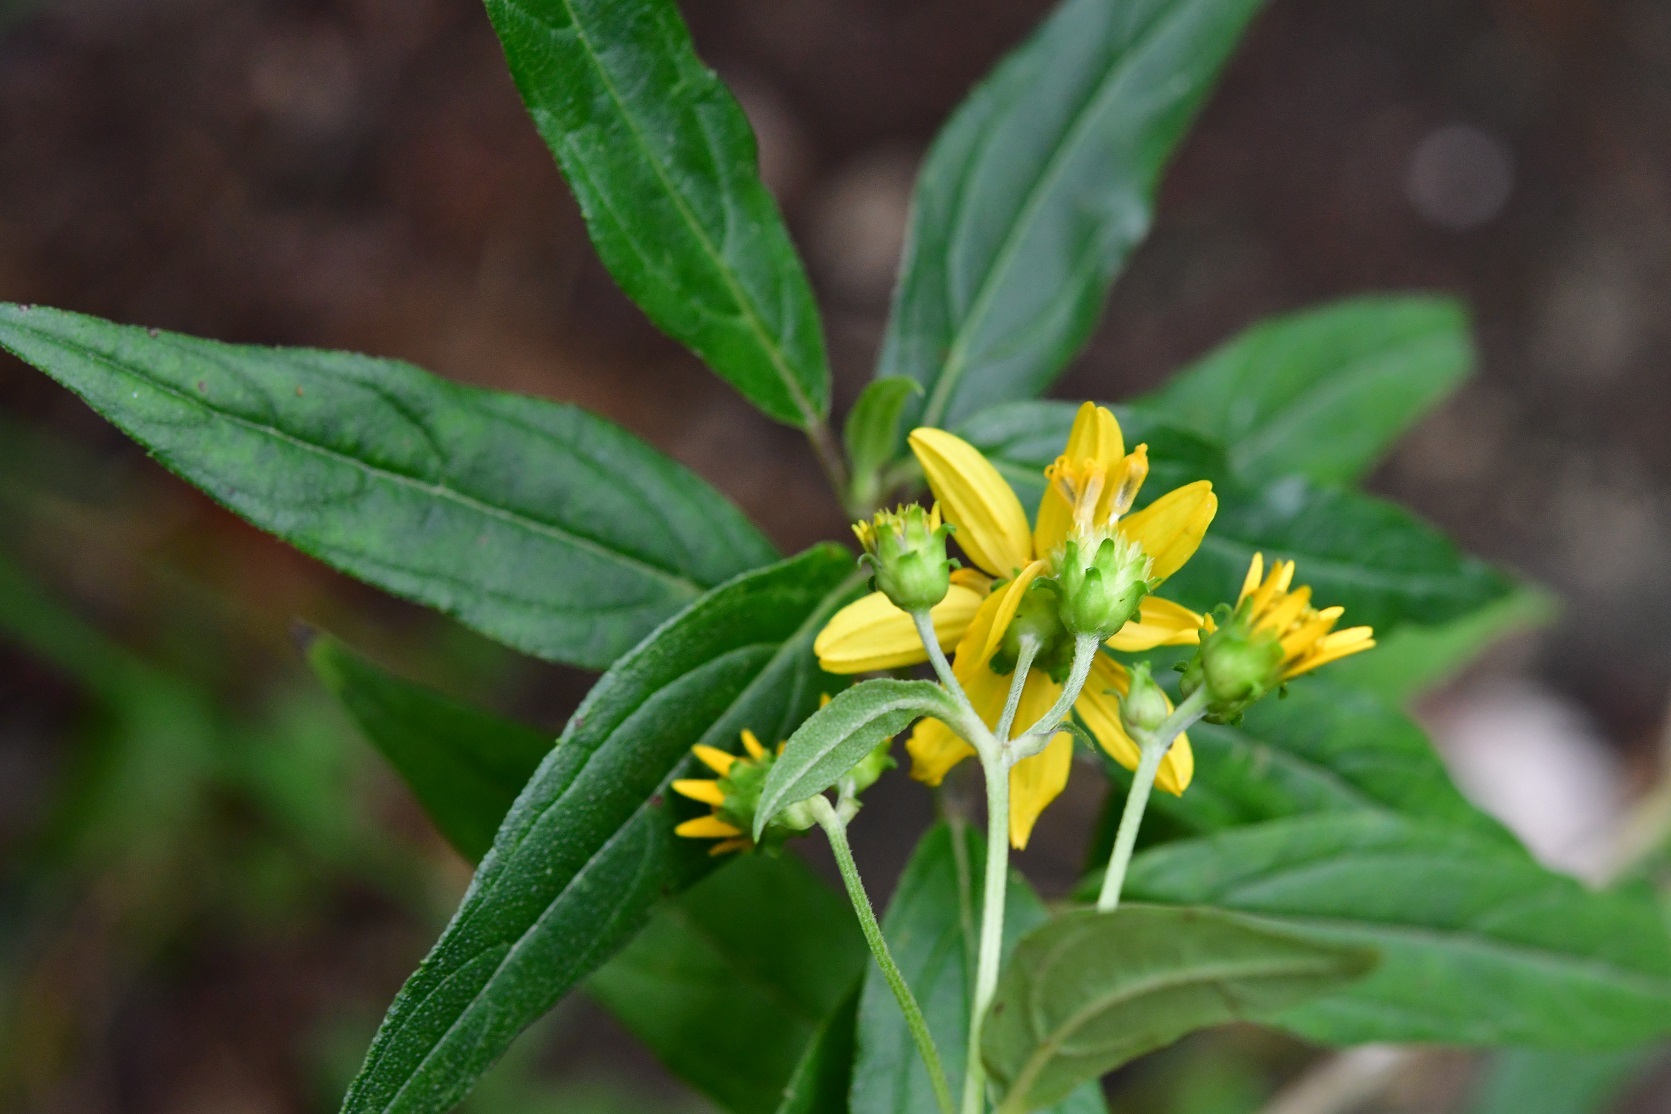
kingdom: Plantae
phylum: Tracheophyta
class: Magnoliopsida
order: Asterales
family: Asteraceae
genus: Perymenium
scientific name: Perymenium ghiesbreghtii
